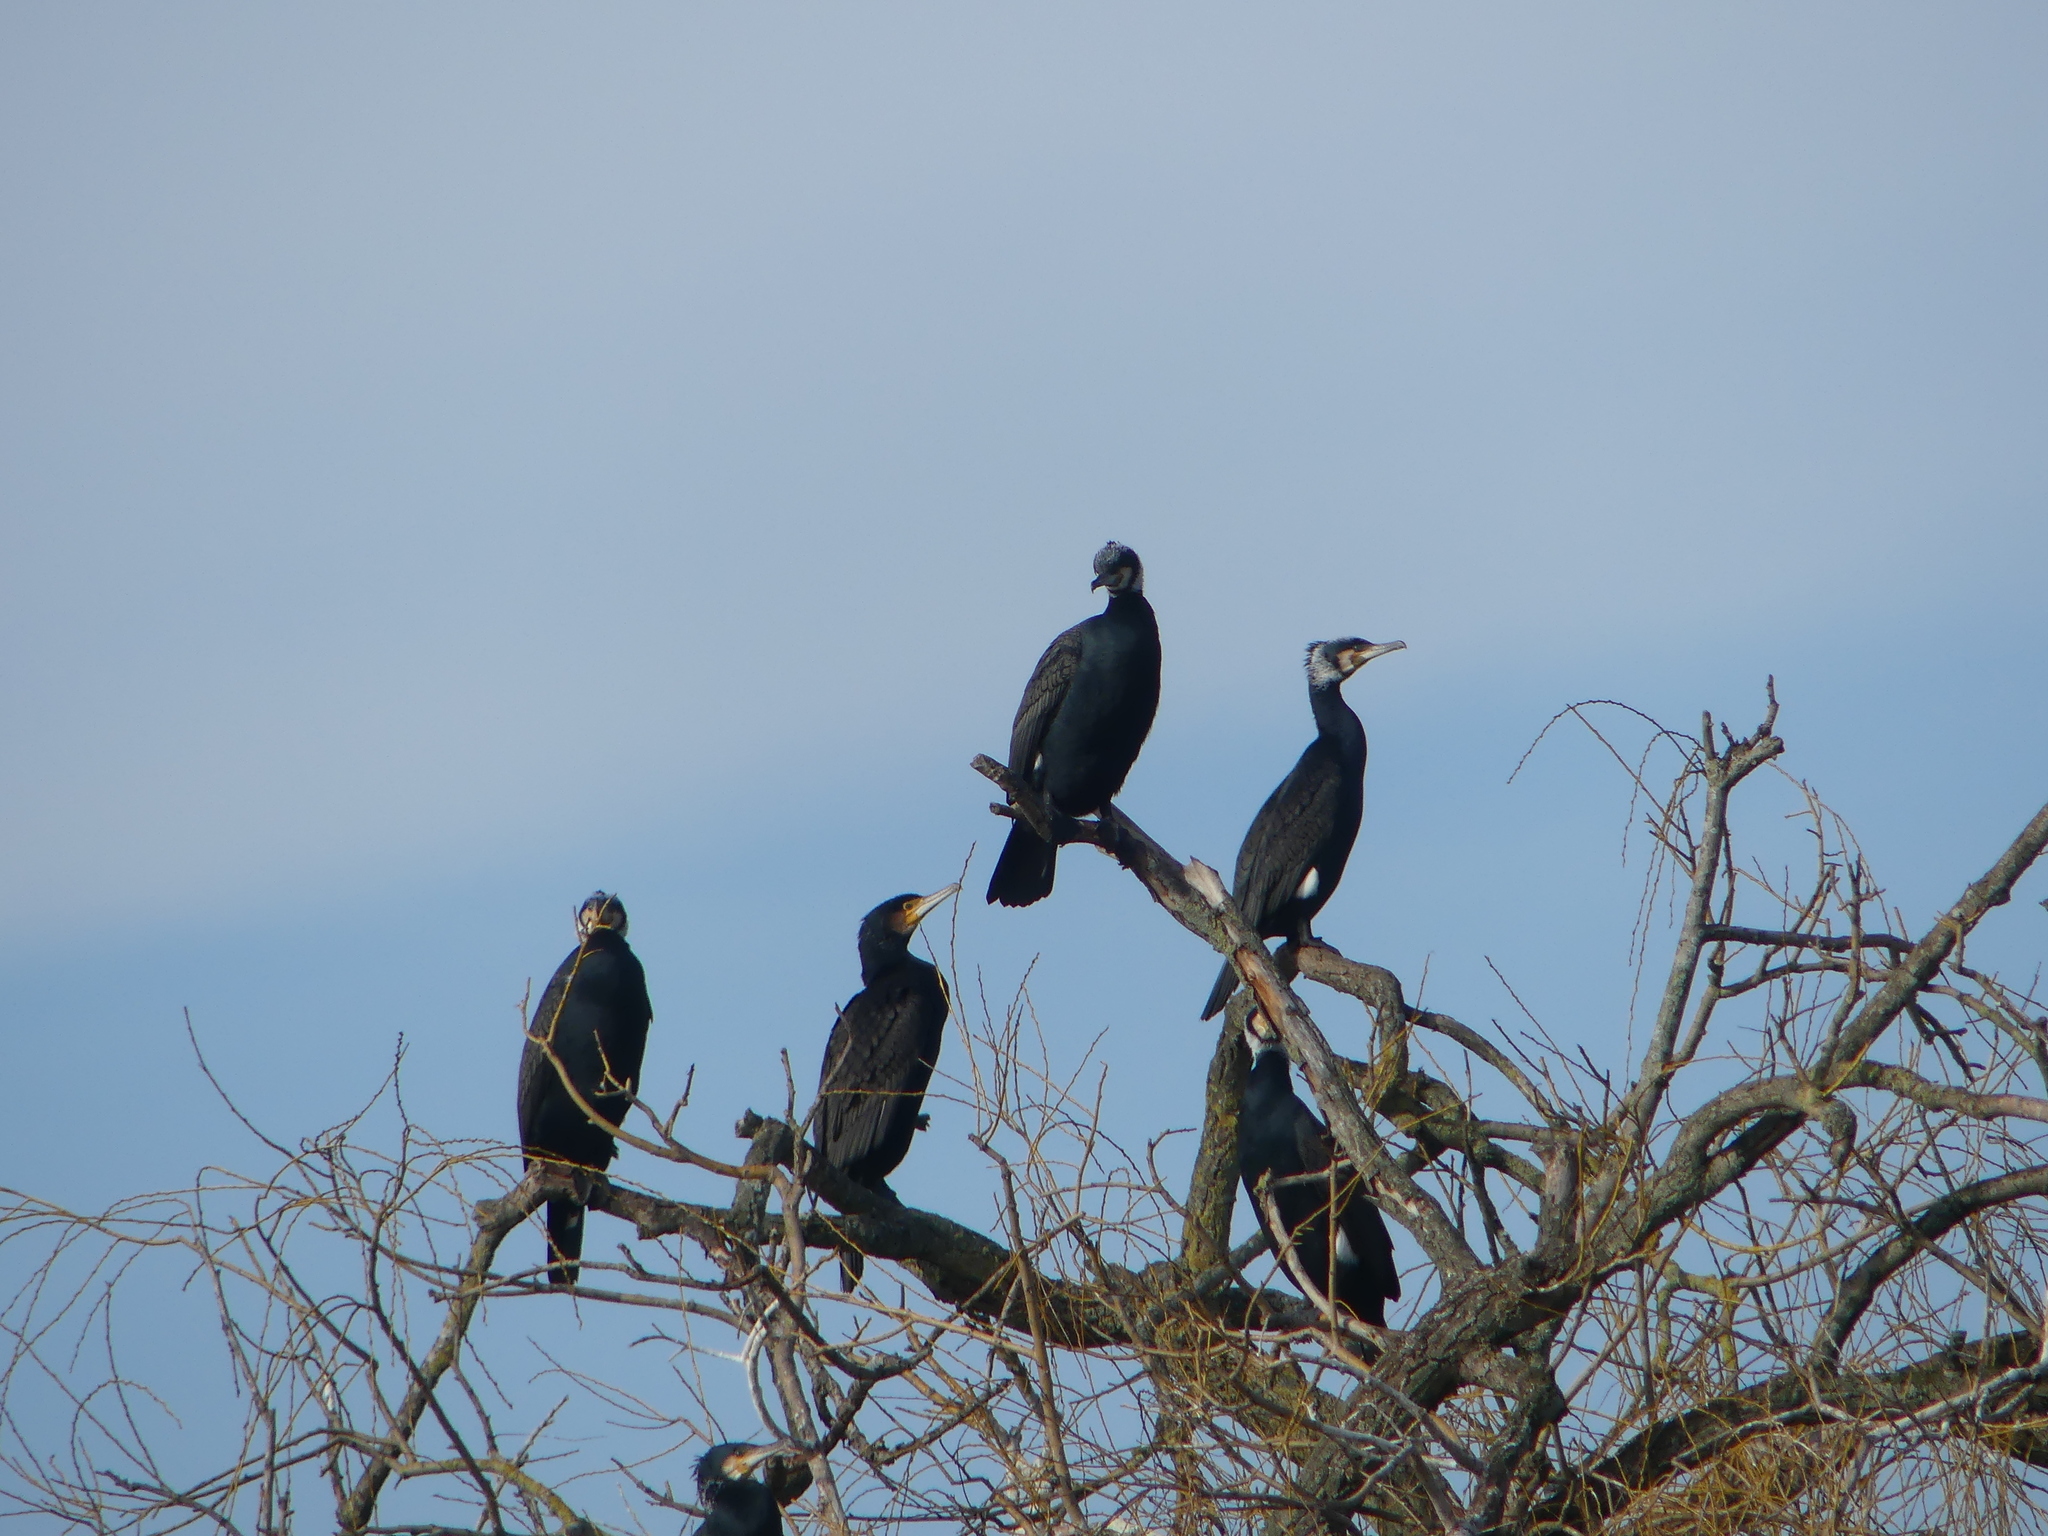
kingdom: Animalia
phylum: Chordata
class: Aves
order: Suliformes
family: Phalacrocoracidae
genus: Phalacrocorax
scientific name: Phalacrocorax carbo
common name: Great cormorant
